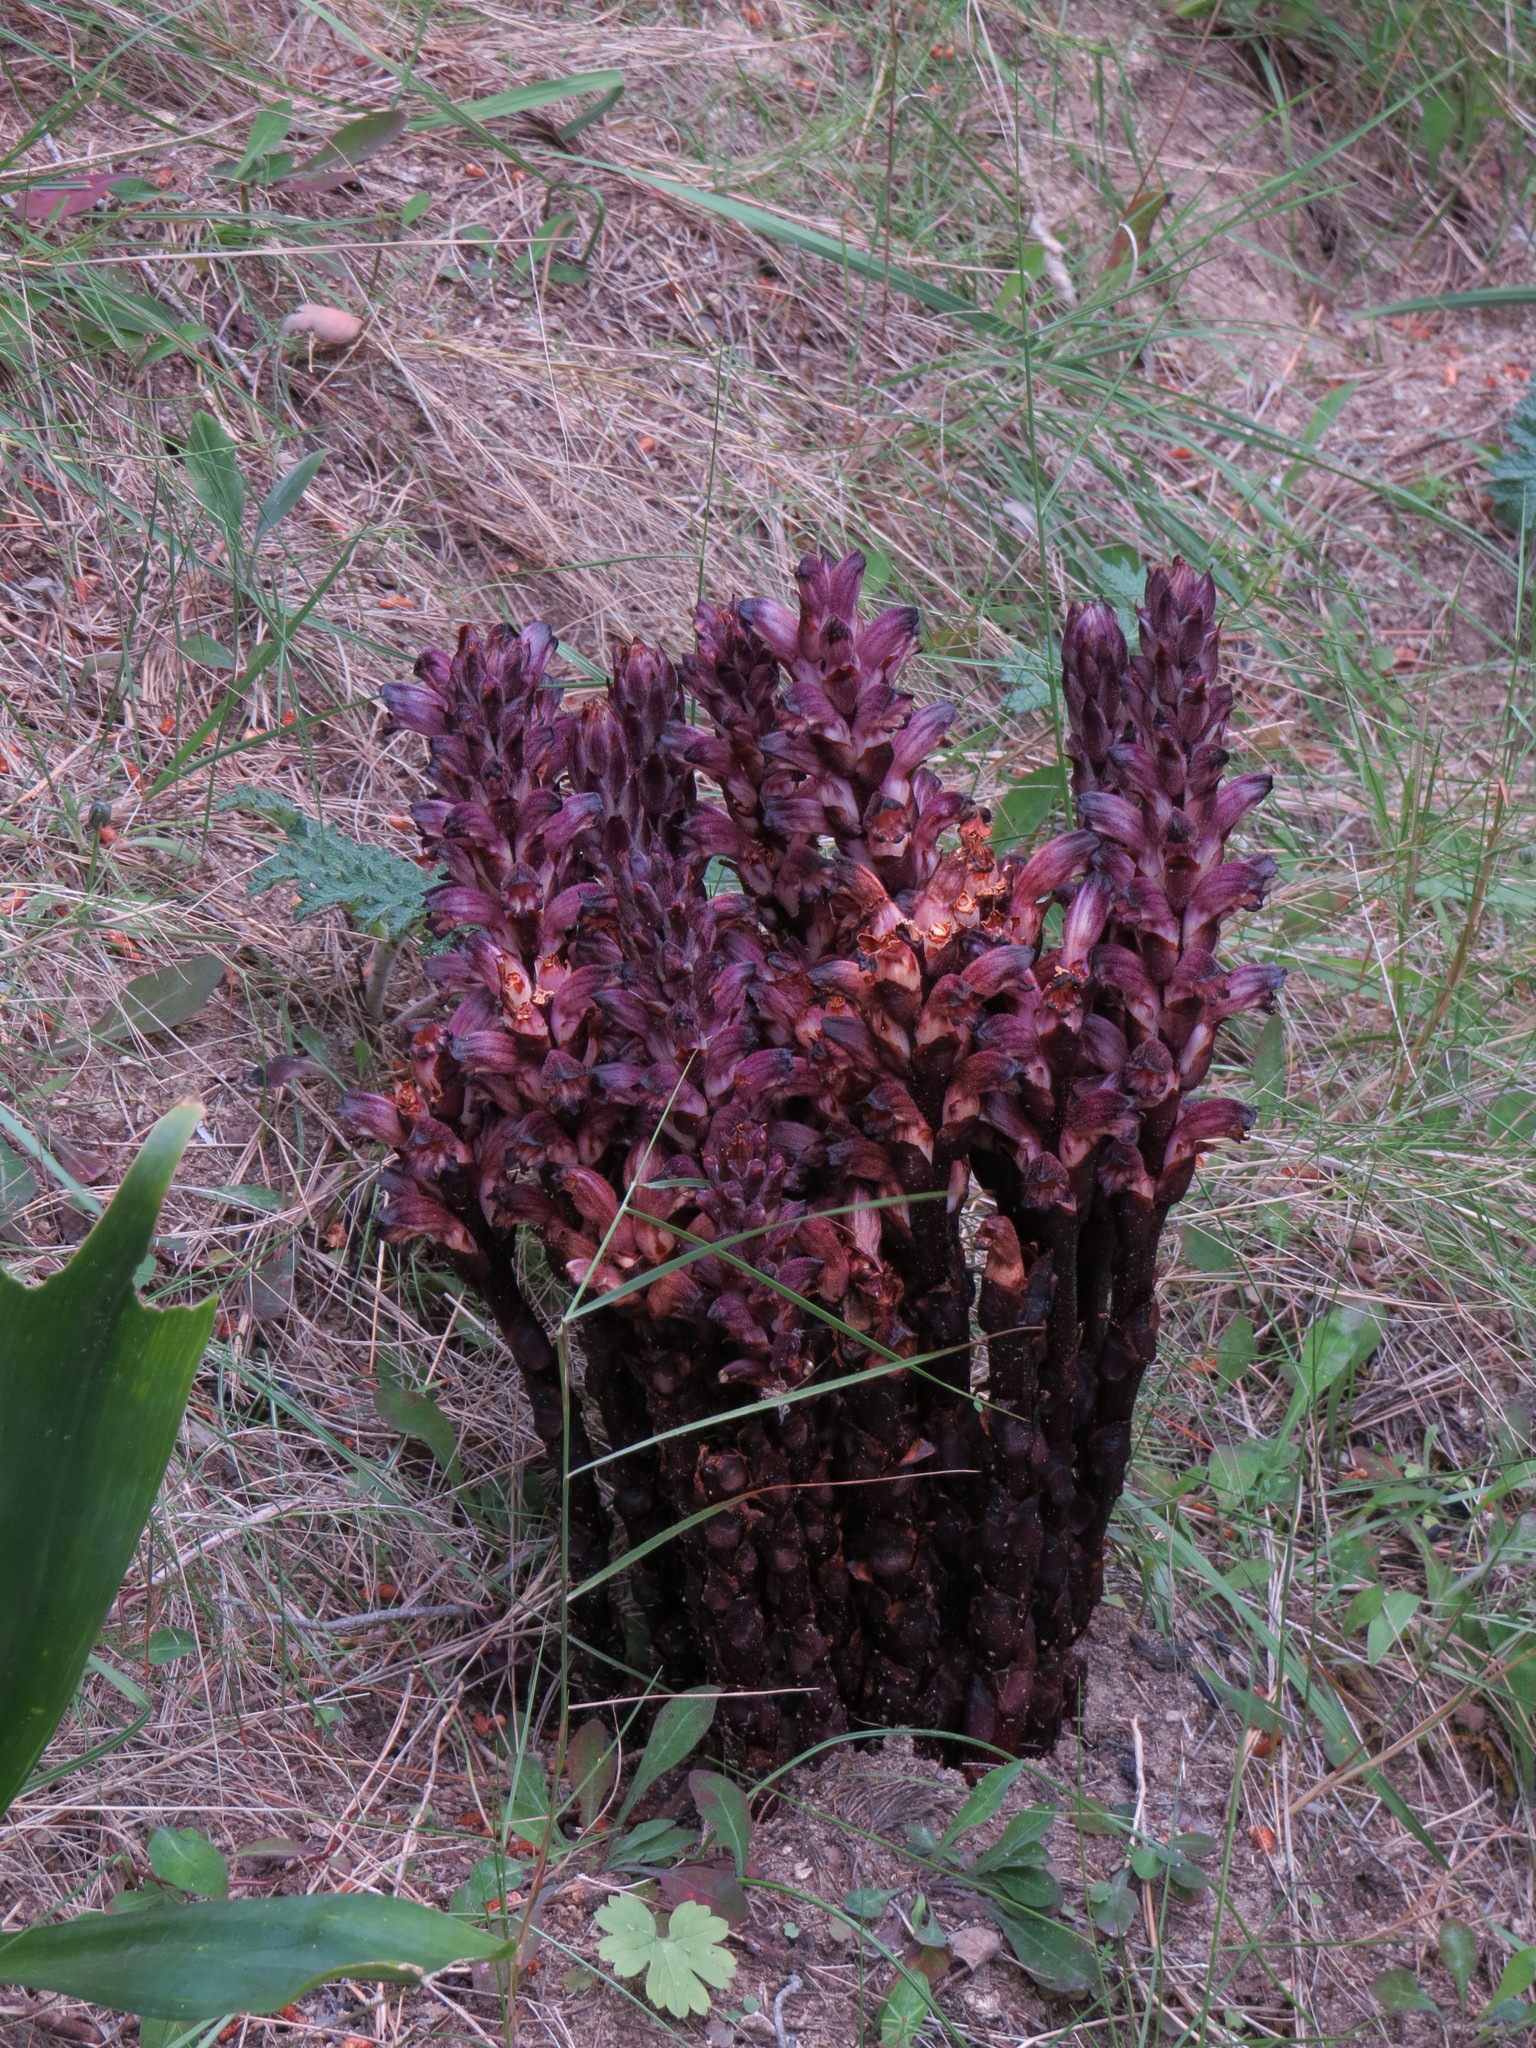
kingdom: Plantae
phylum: Tracheophyta
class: Magnoliopsida
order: Lamiales
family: Orobanchaceae
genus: Boulardia
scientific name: Boulardia latisquama
